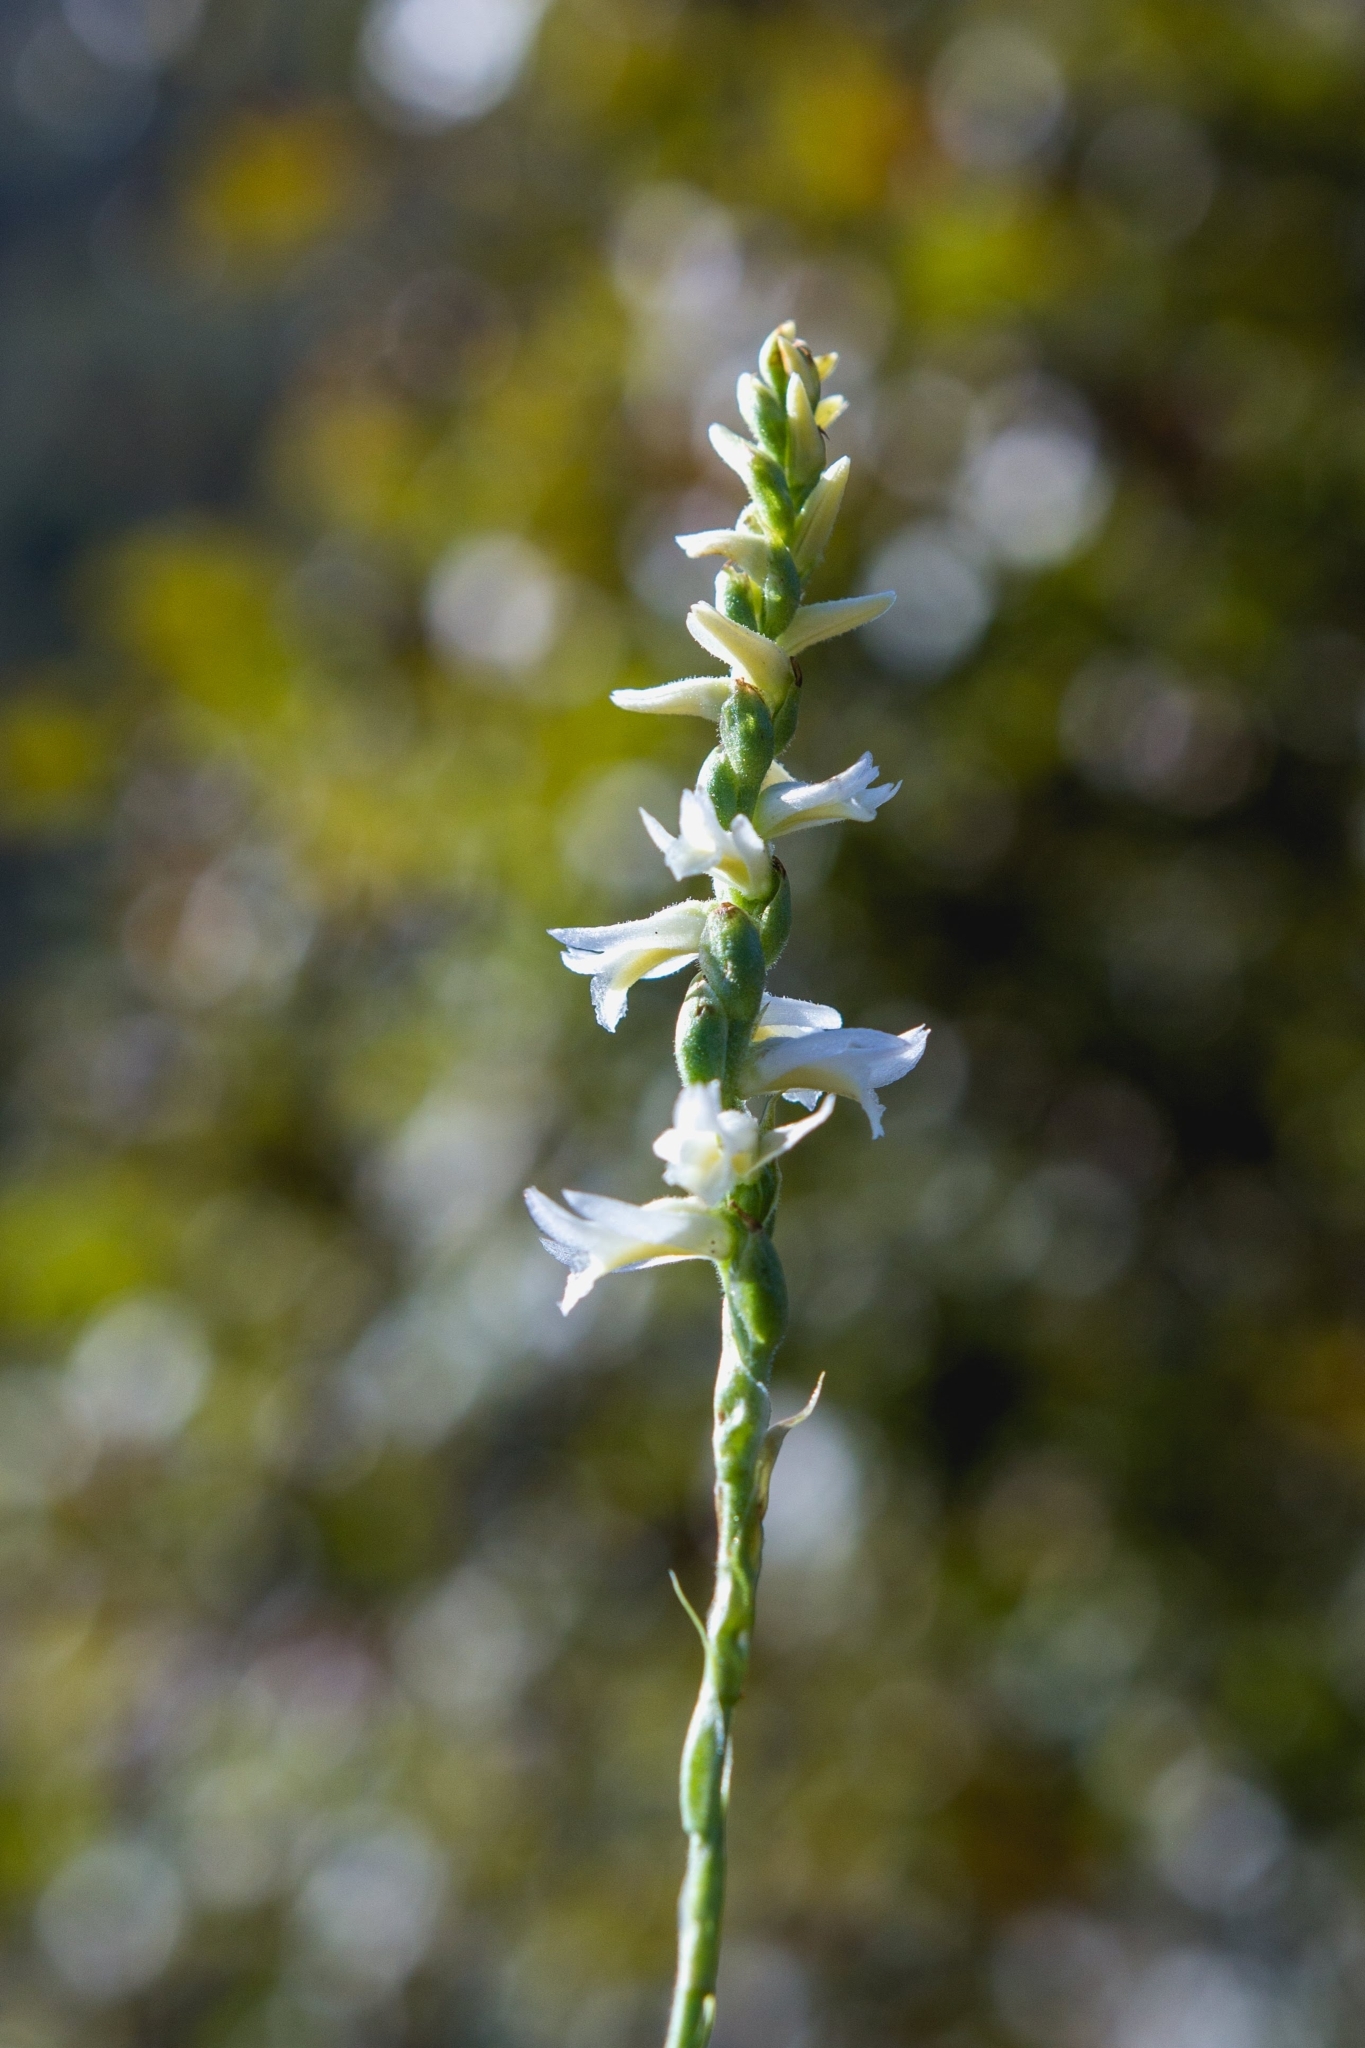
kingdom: Plantae
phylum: Tracheophyta
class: Liliopsida
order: Asparagales
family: Orchidaceae
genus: Spiranthes
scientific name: Spiranthes magnicamporum
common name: Great plains ladies'-tresses
